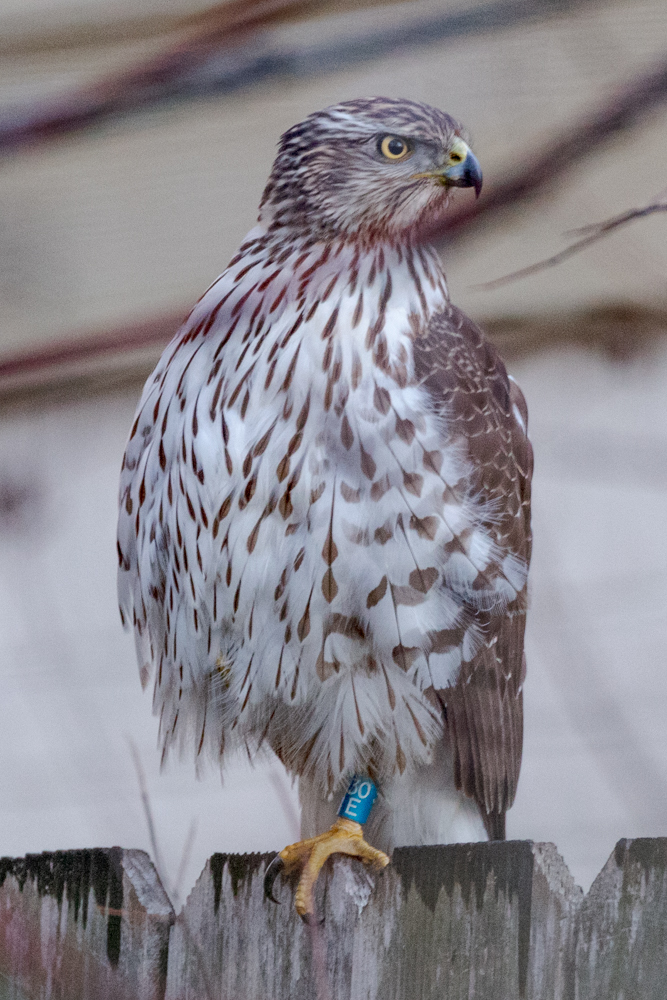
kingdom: Animalia
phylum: Chordata
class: Aves
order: Accipitriformes
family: Accipitridae
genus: Accipiter
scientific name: Accipiter cooperii
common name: Cooper's hawk
